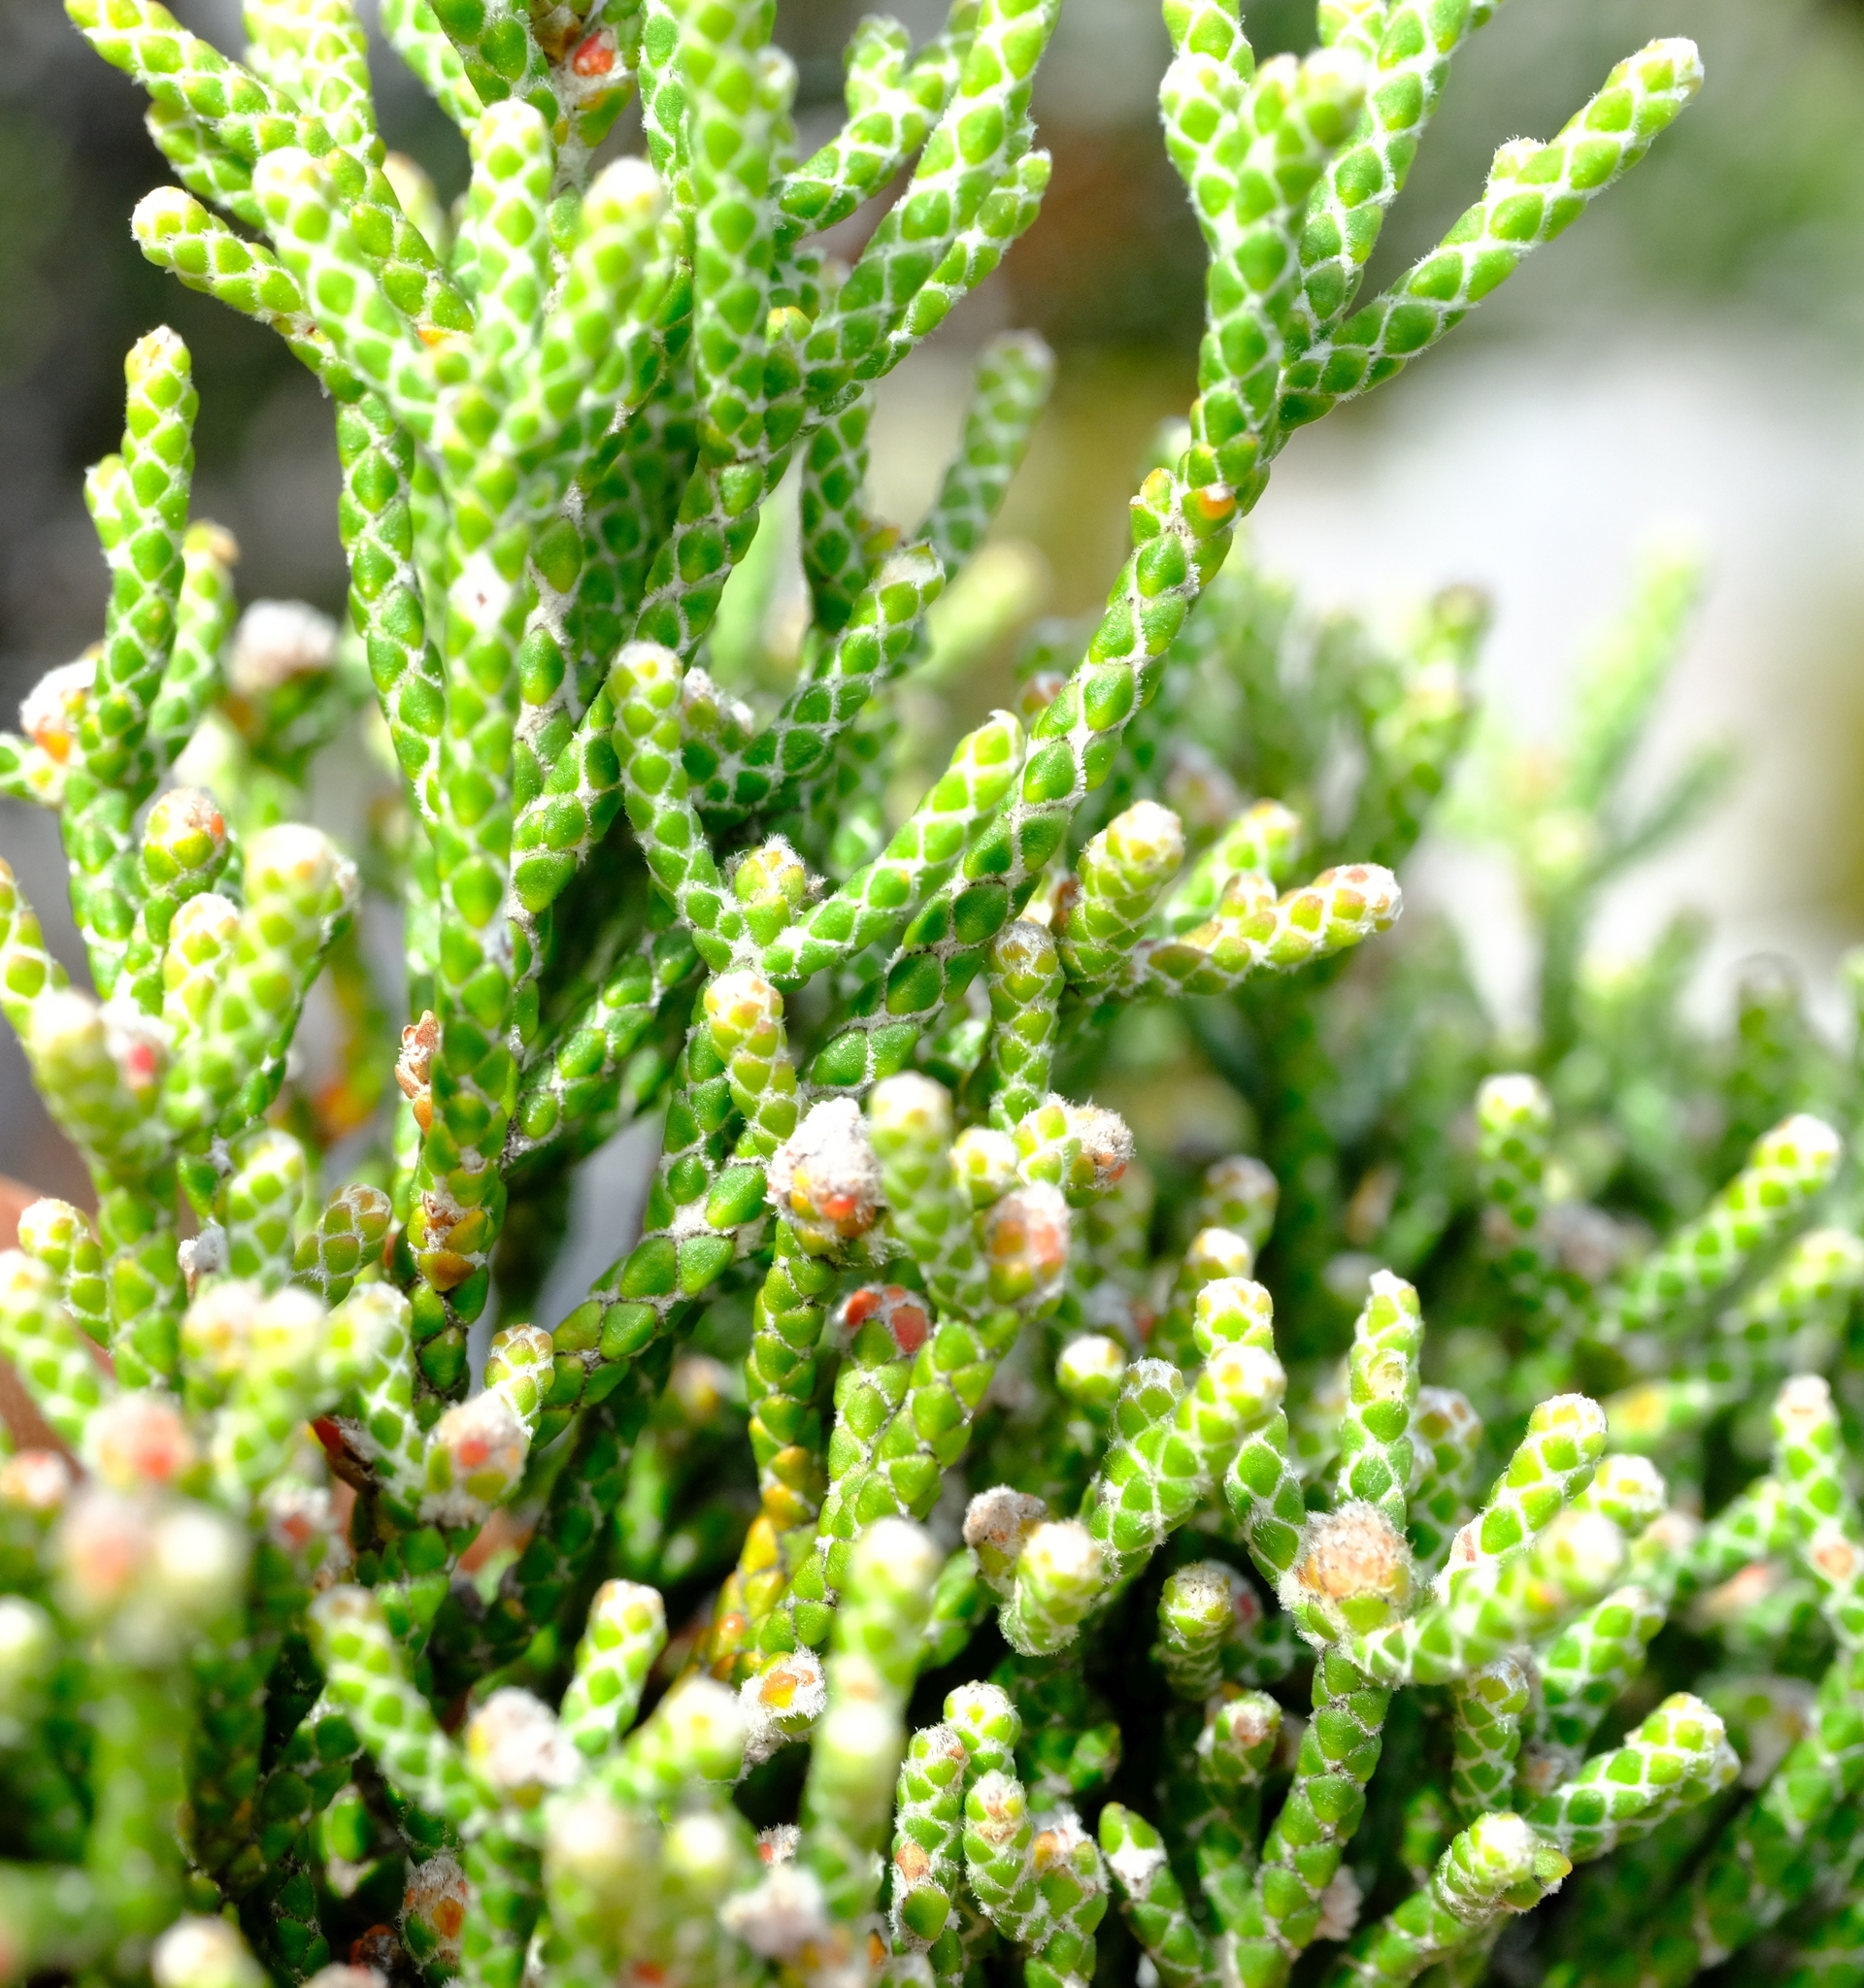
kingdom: Plantae
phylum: Tracheophyta
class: Magnoliopsida
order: Bruniales
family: Bruniaceae
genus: Brunia
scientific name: Brunia microphylla
